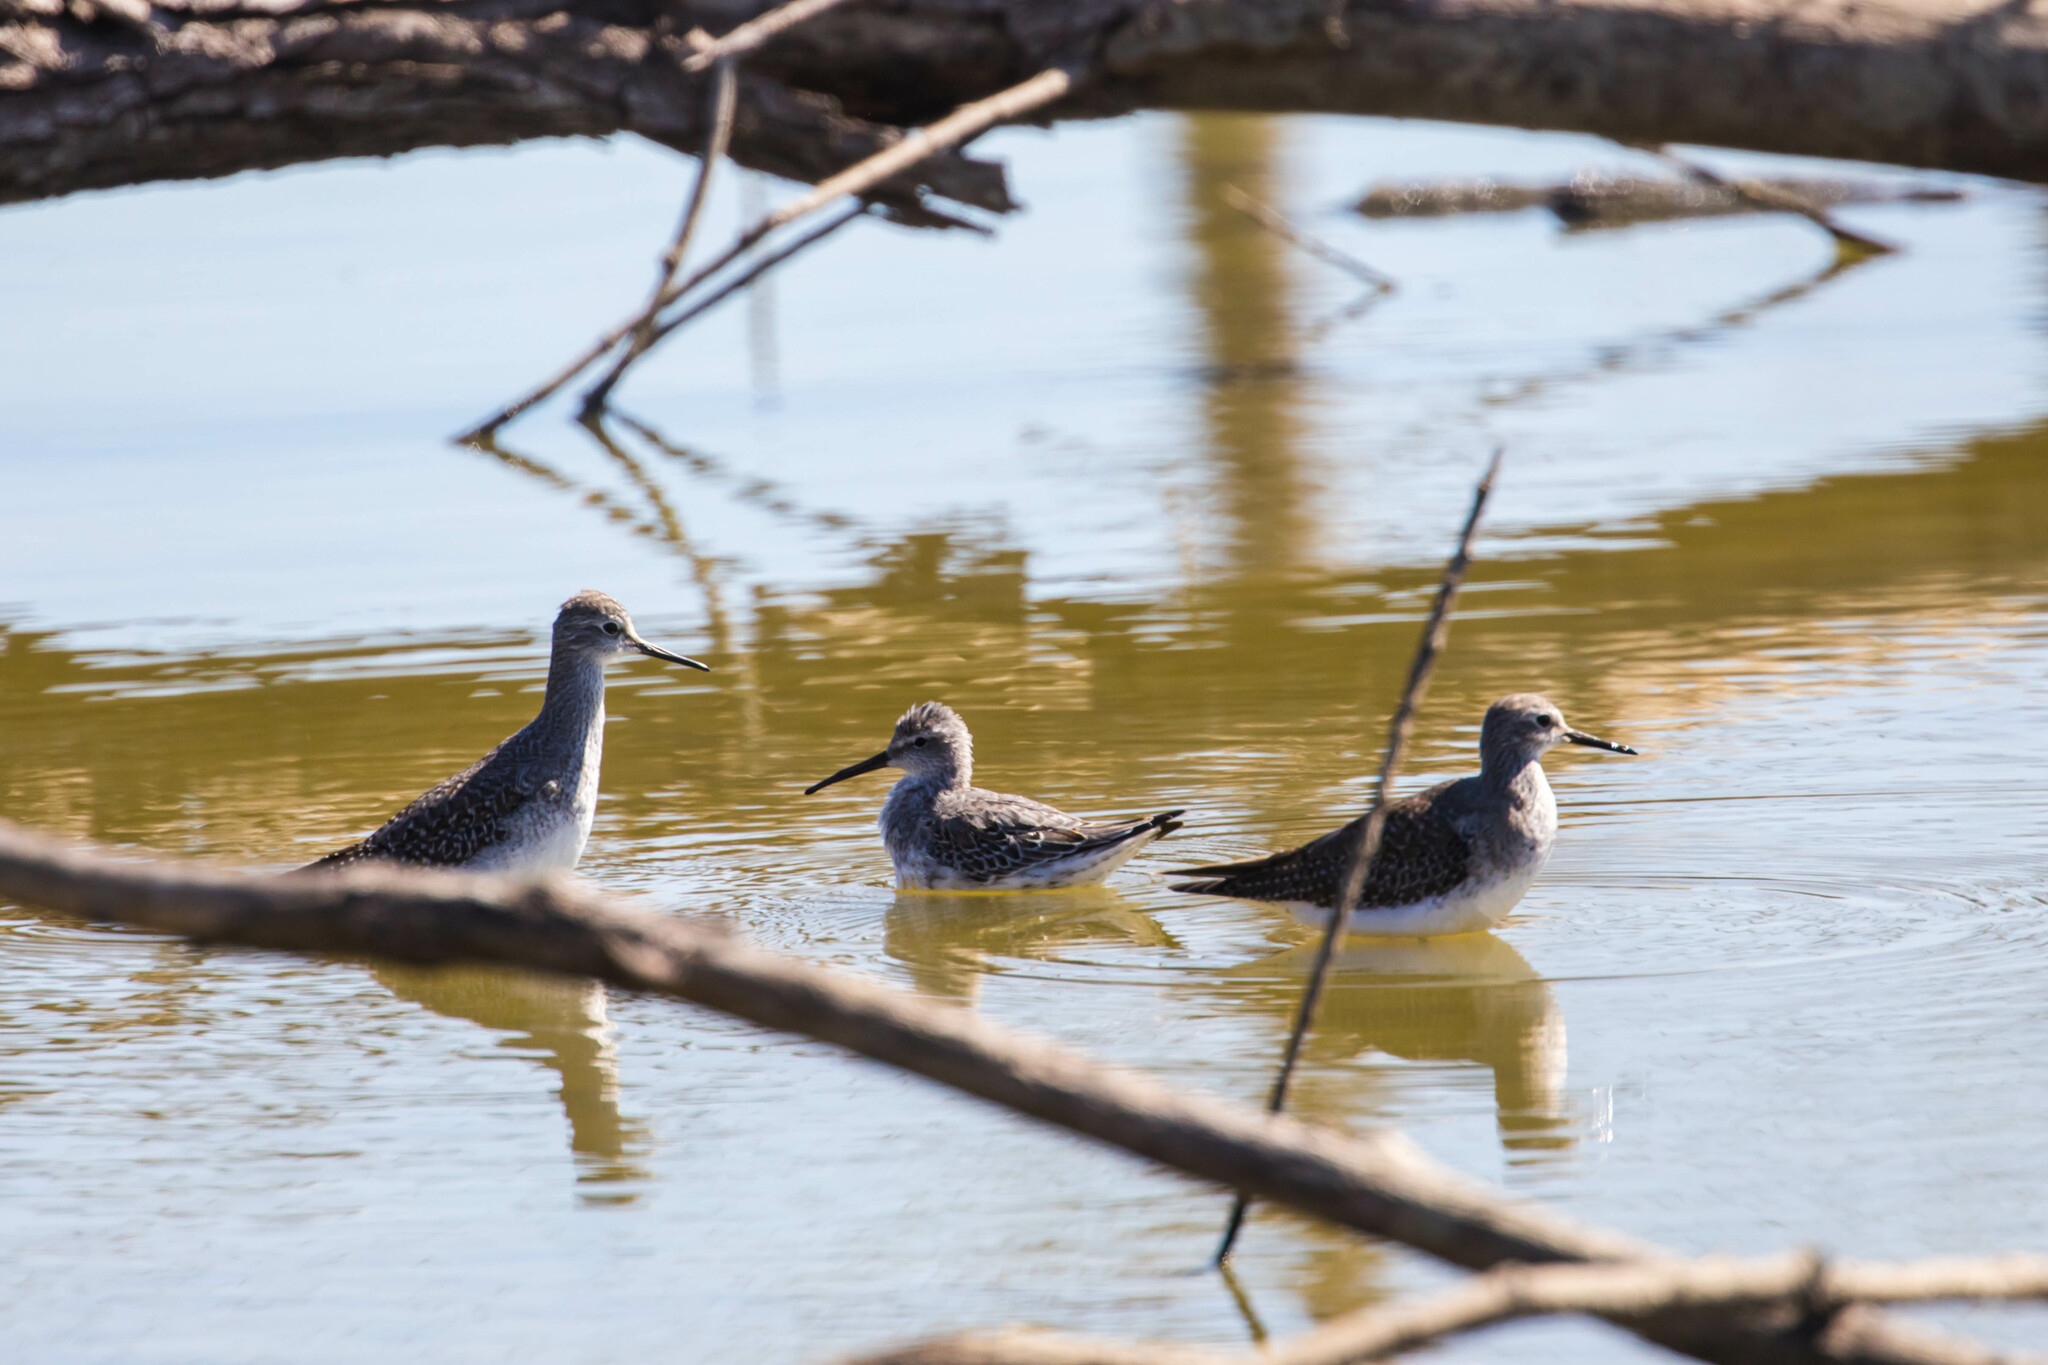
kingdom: Animalia
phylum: Chordata
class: Aves
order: Charadriiformes
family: Scolopacidae
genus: Calidris
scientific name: Calidris himantopus
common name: Stilt sandpiper
